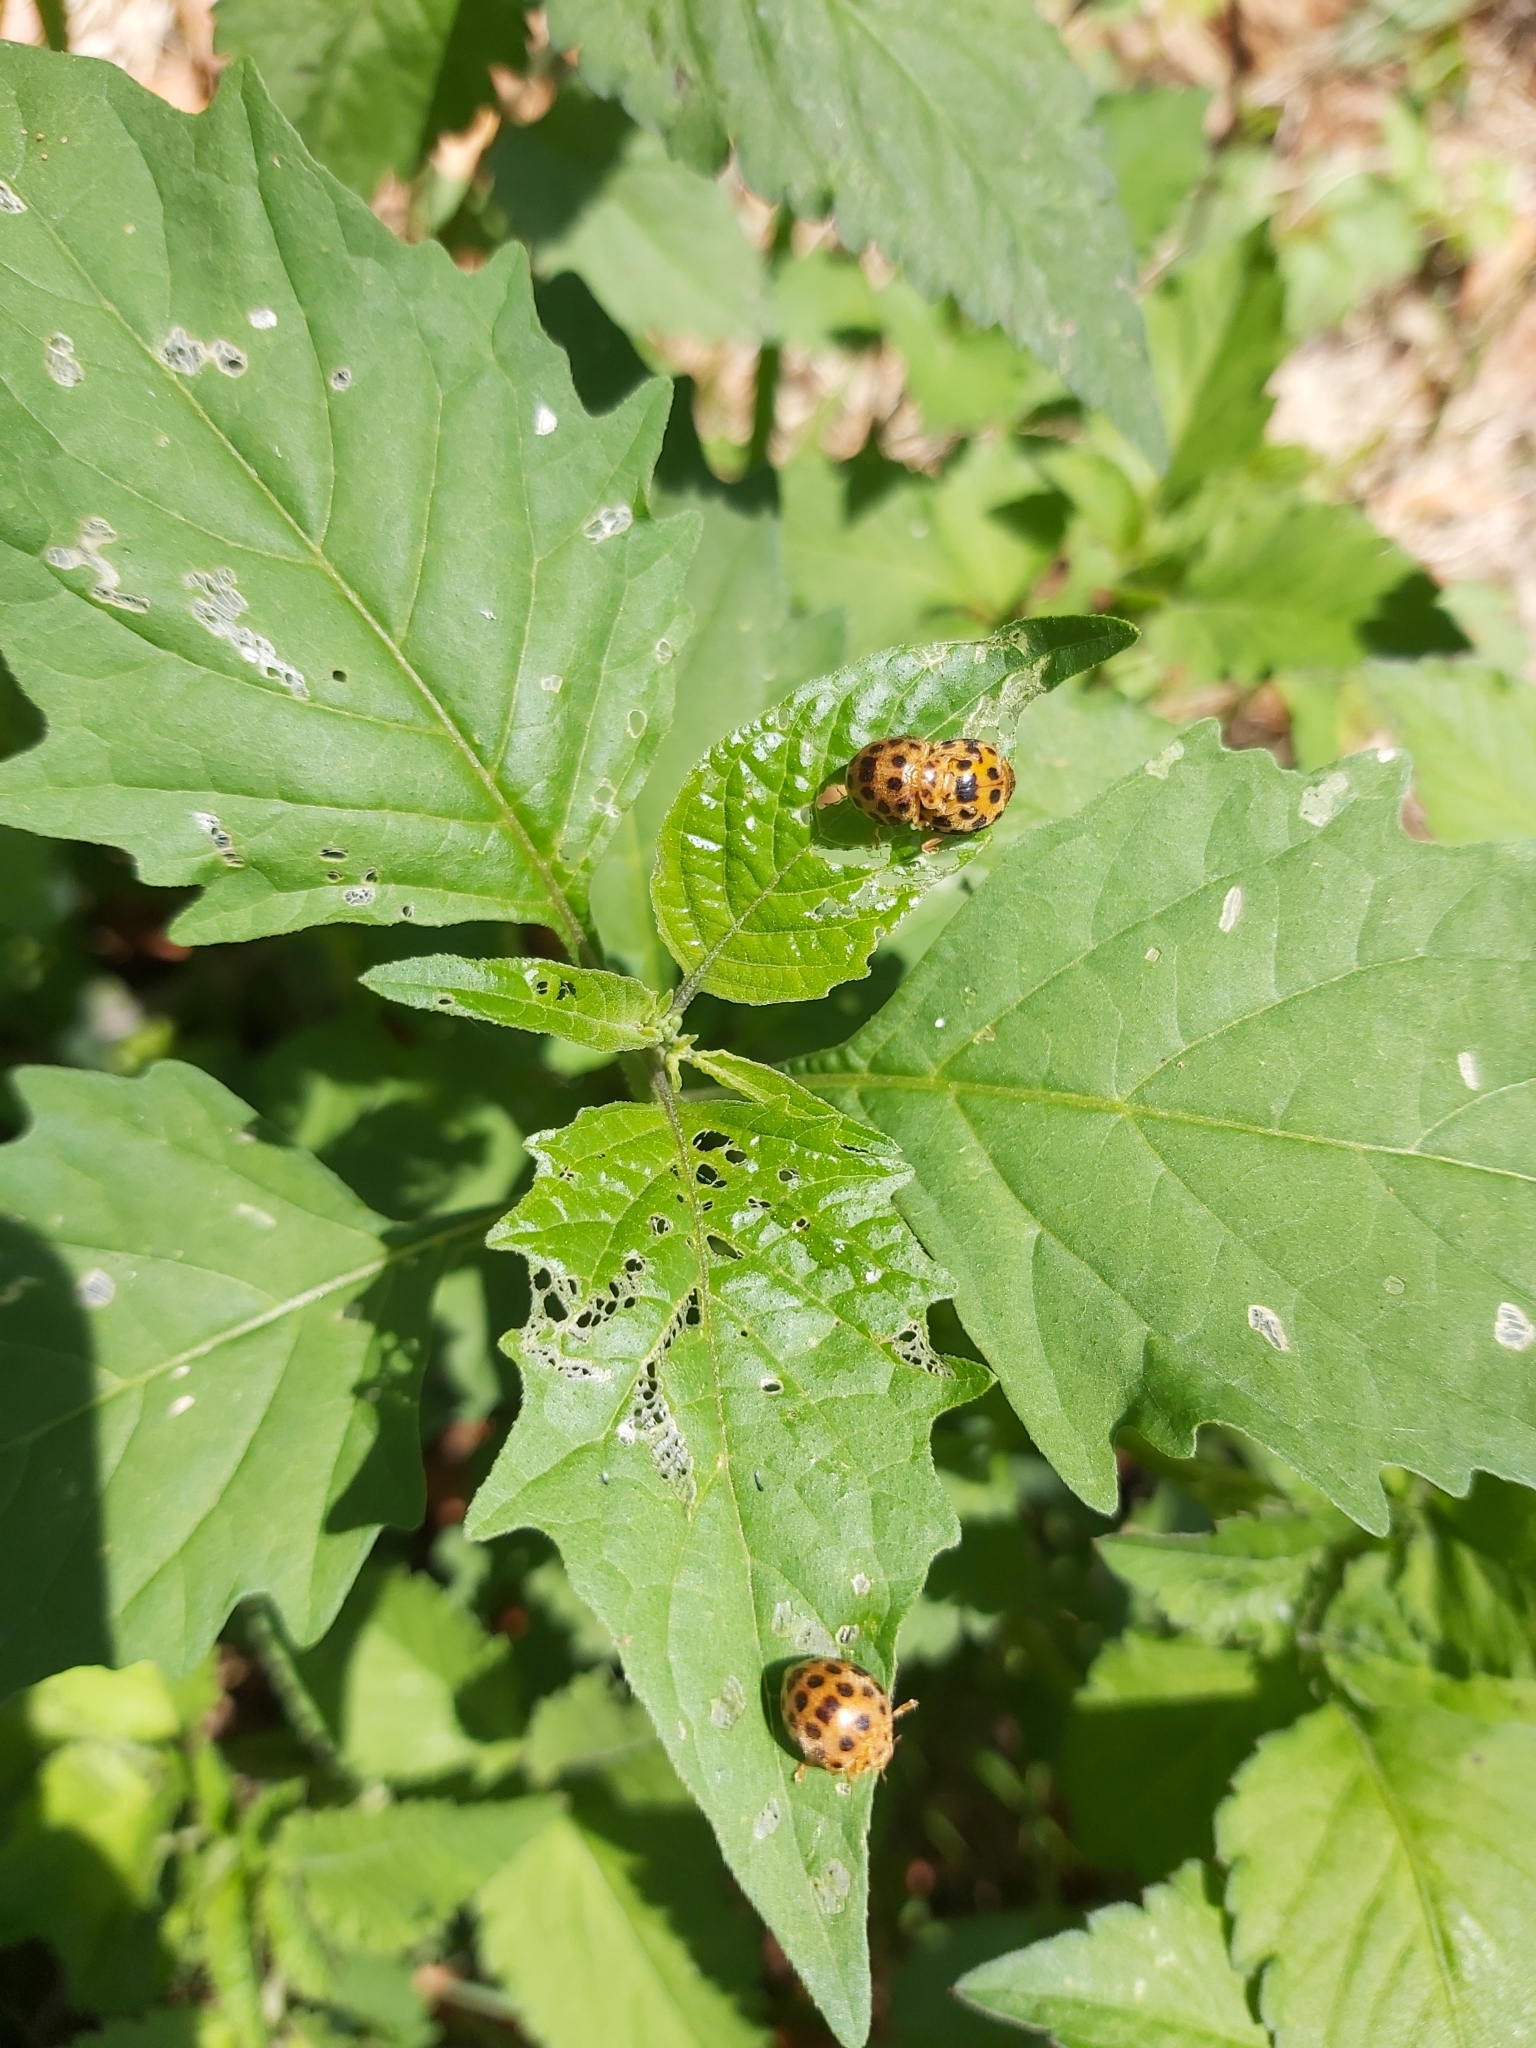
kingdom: Animalia
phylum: Arthropoda
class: Insecta
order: Coleoptera
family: Coccinellidae
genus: Henosepilachna
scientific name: Henosepilachna vigintioctopunctata
